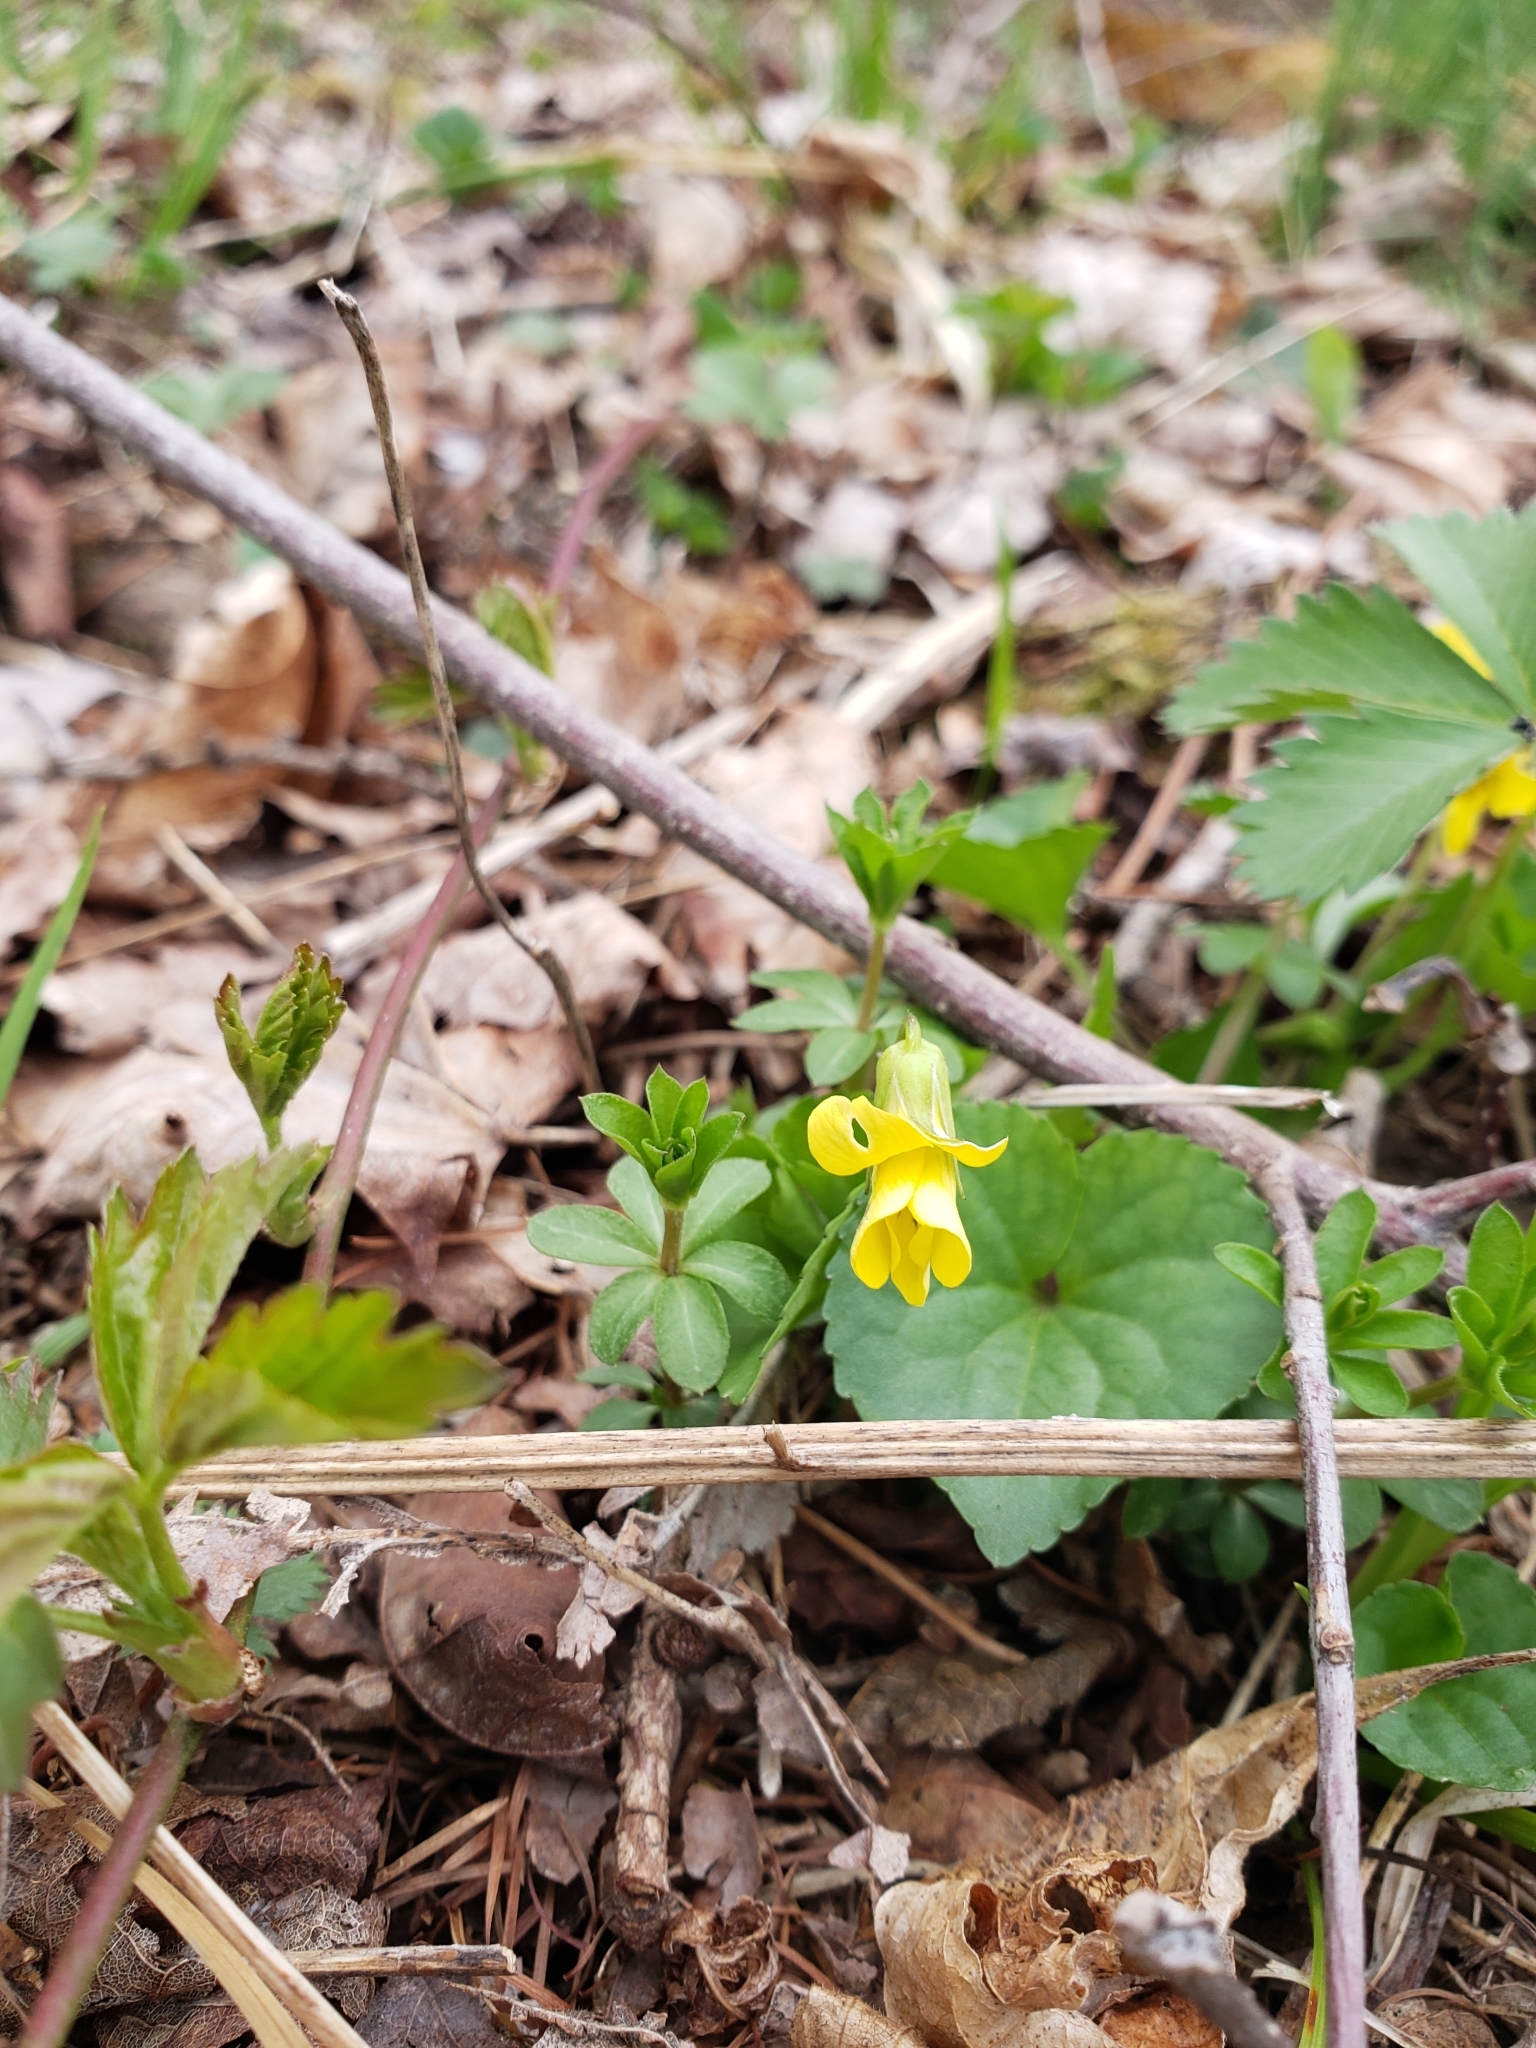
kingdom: Plantae
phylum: Tracheophyta
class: Magnoliopsida
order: Malpighiales
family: Violaceae
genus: Viola
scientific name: Viola eriocarpa
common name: Smooth yellow violet
